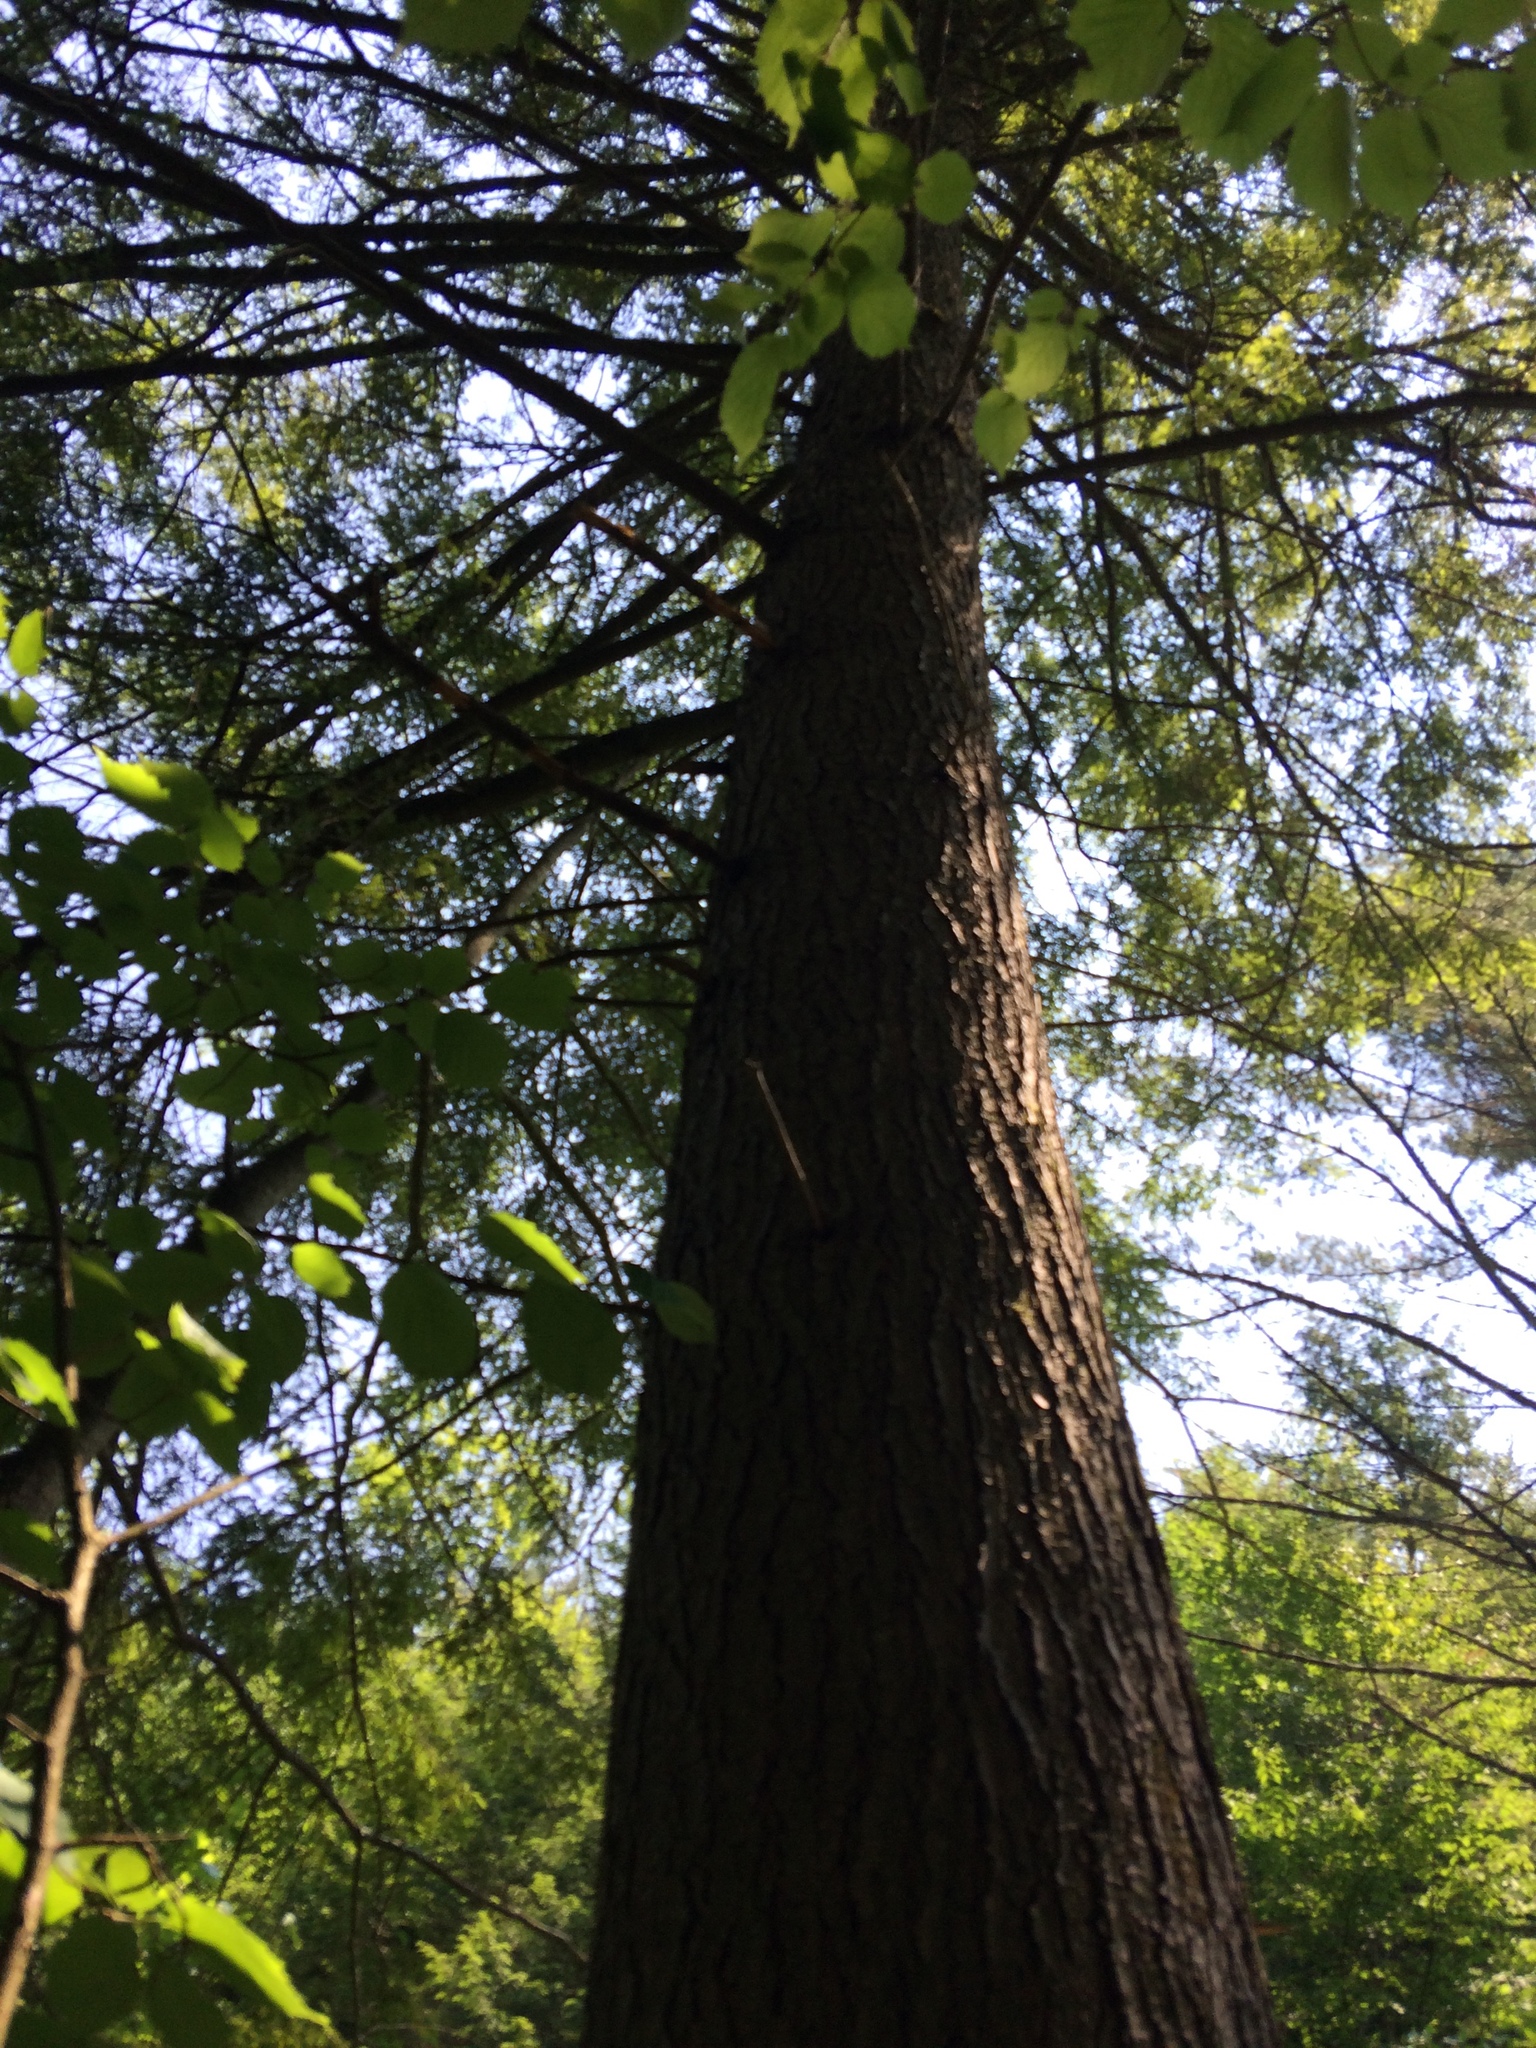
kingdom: Plantae
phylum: Tracheophyta
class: Pinopsida
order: Pinales
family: Pinaceae
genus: Tsuga
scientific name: Tsuga canadensis
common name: Eastern hemlock
